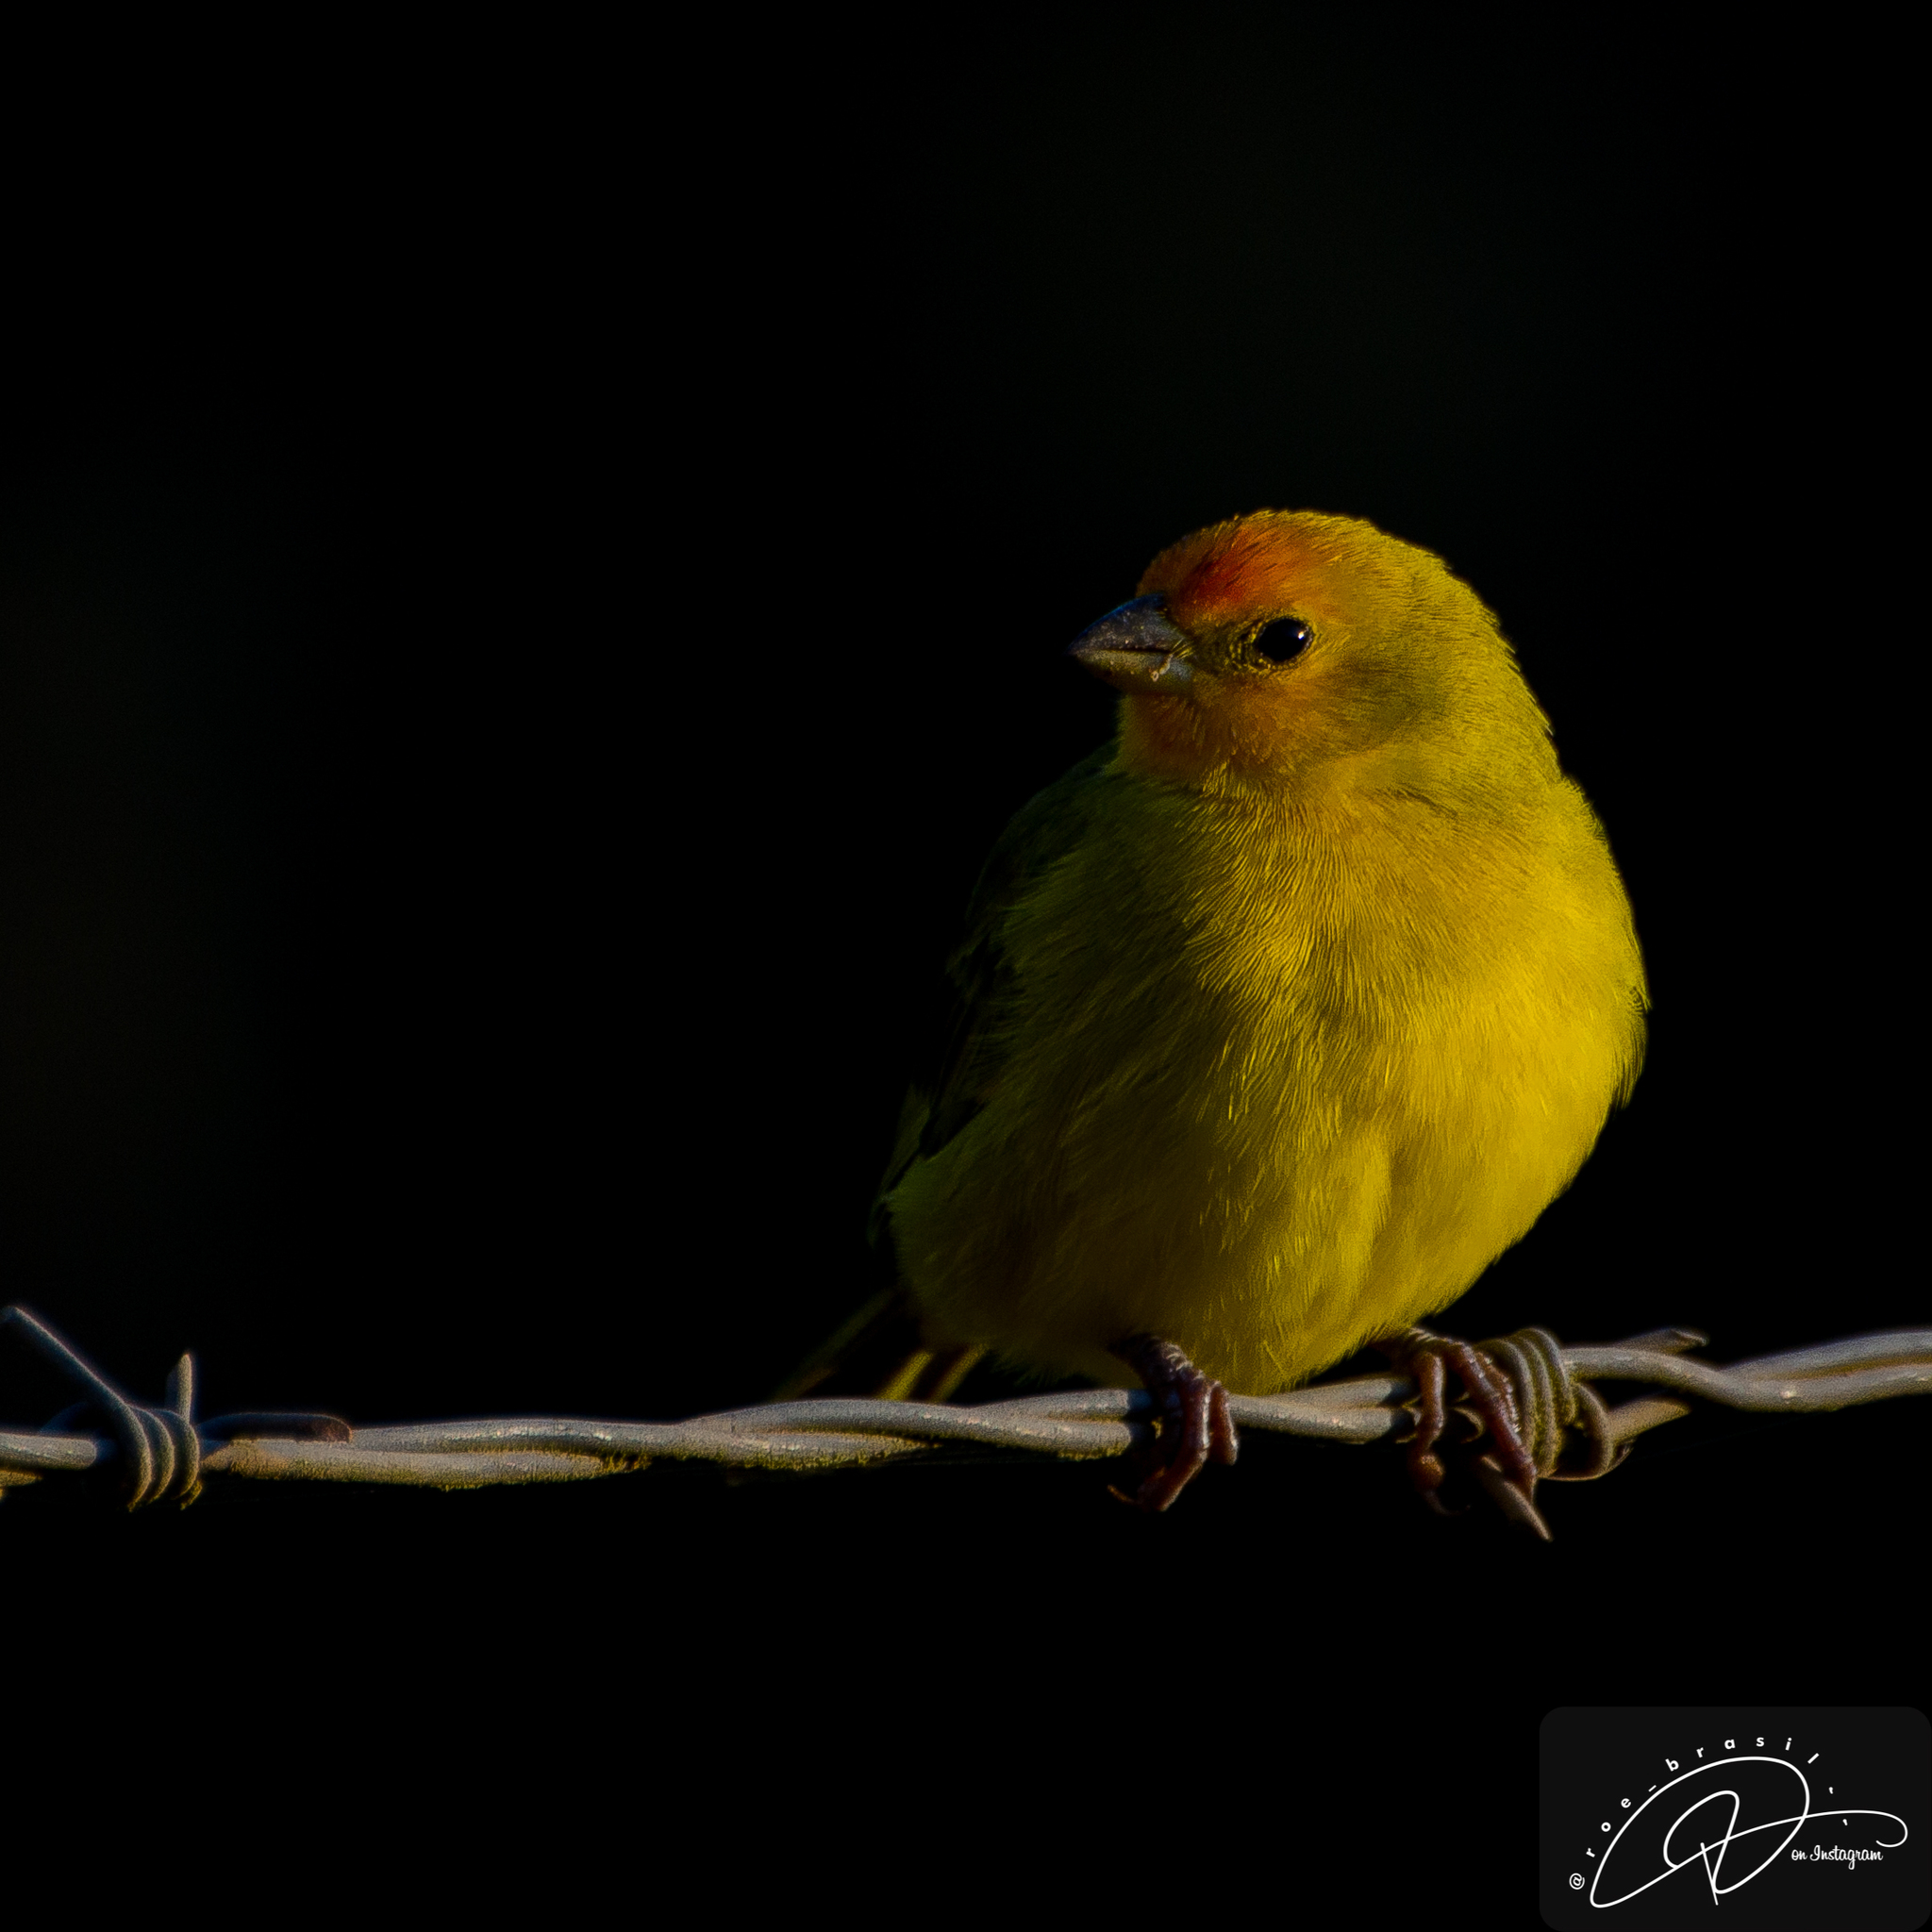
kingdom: Animalia
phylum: Chordata
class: Aves
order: Passeriformes
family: Thraupidae
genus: Sicalis
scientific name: Sicalis flaveola
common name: Saffron finch
